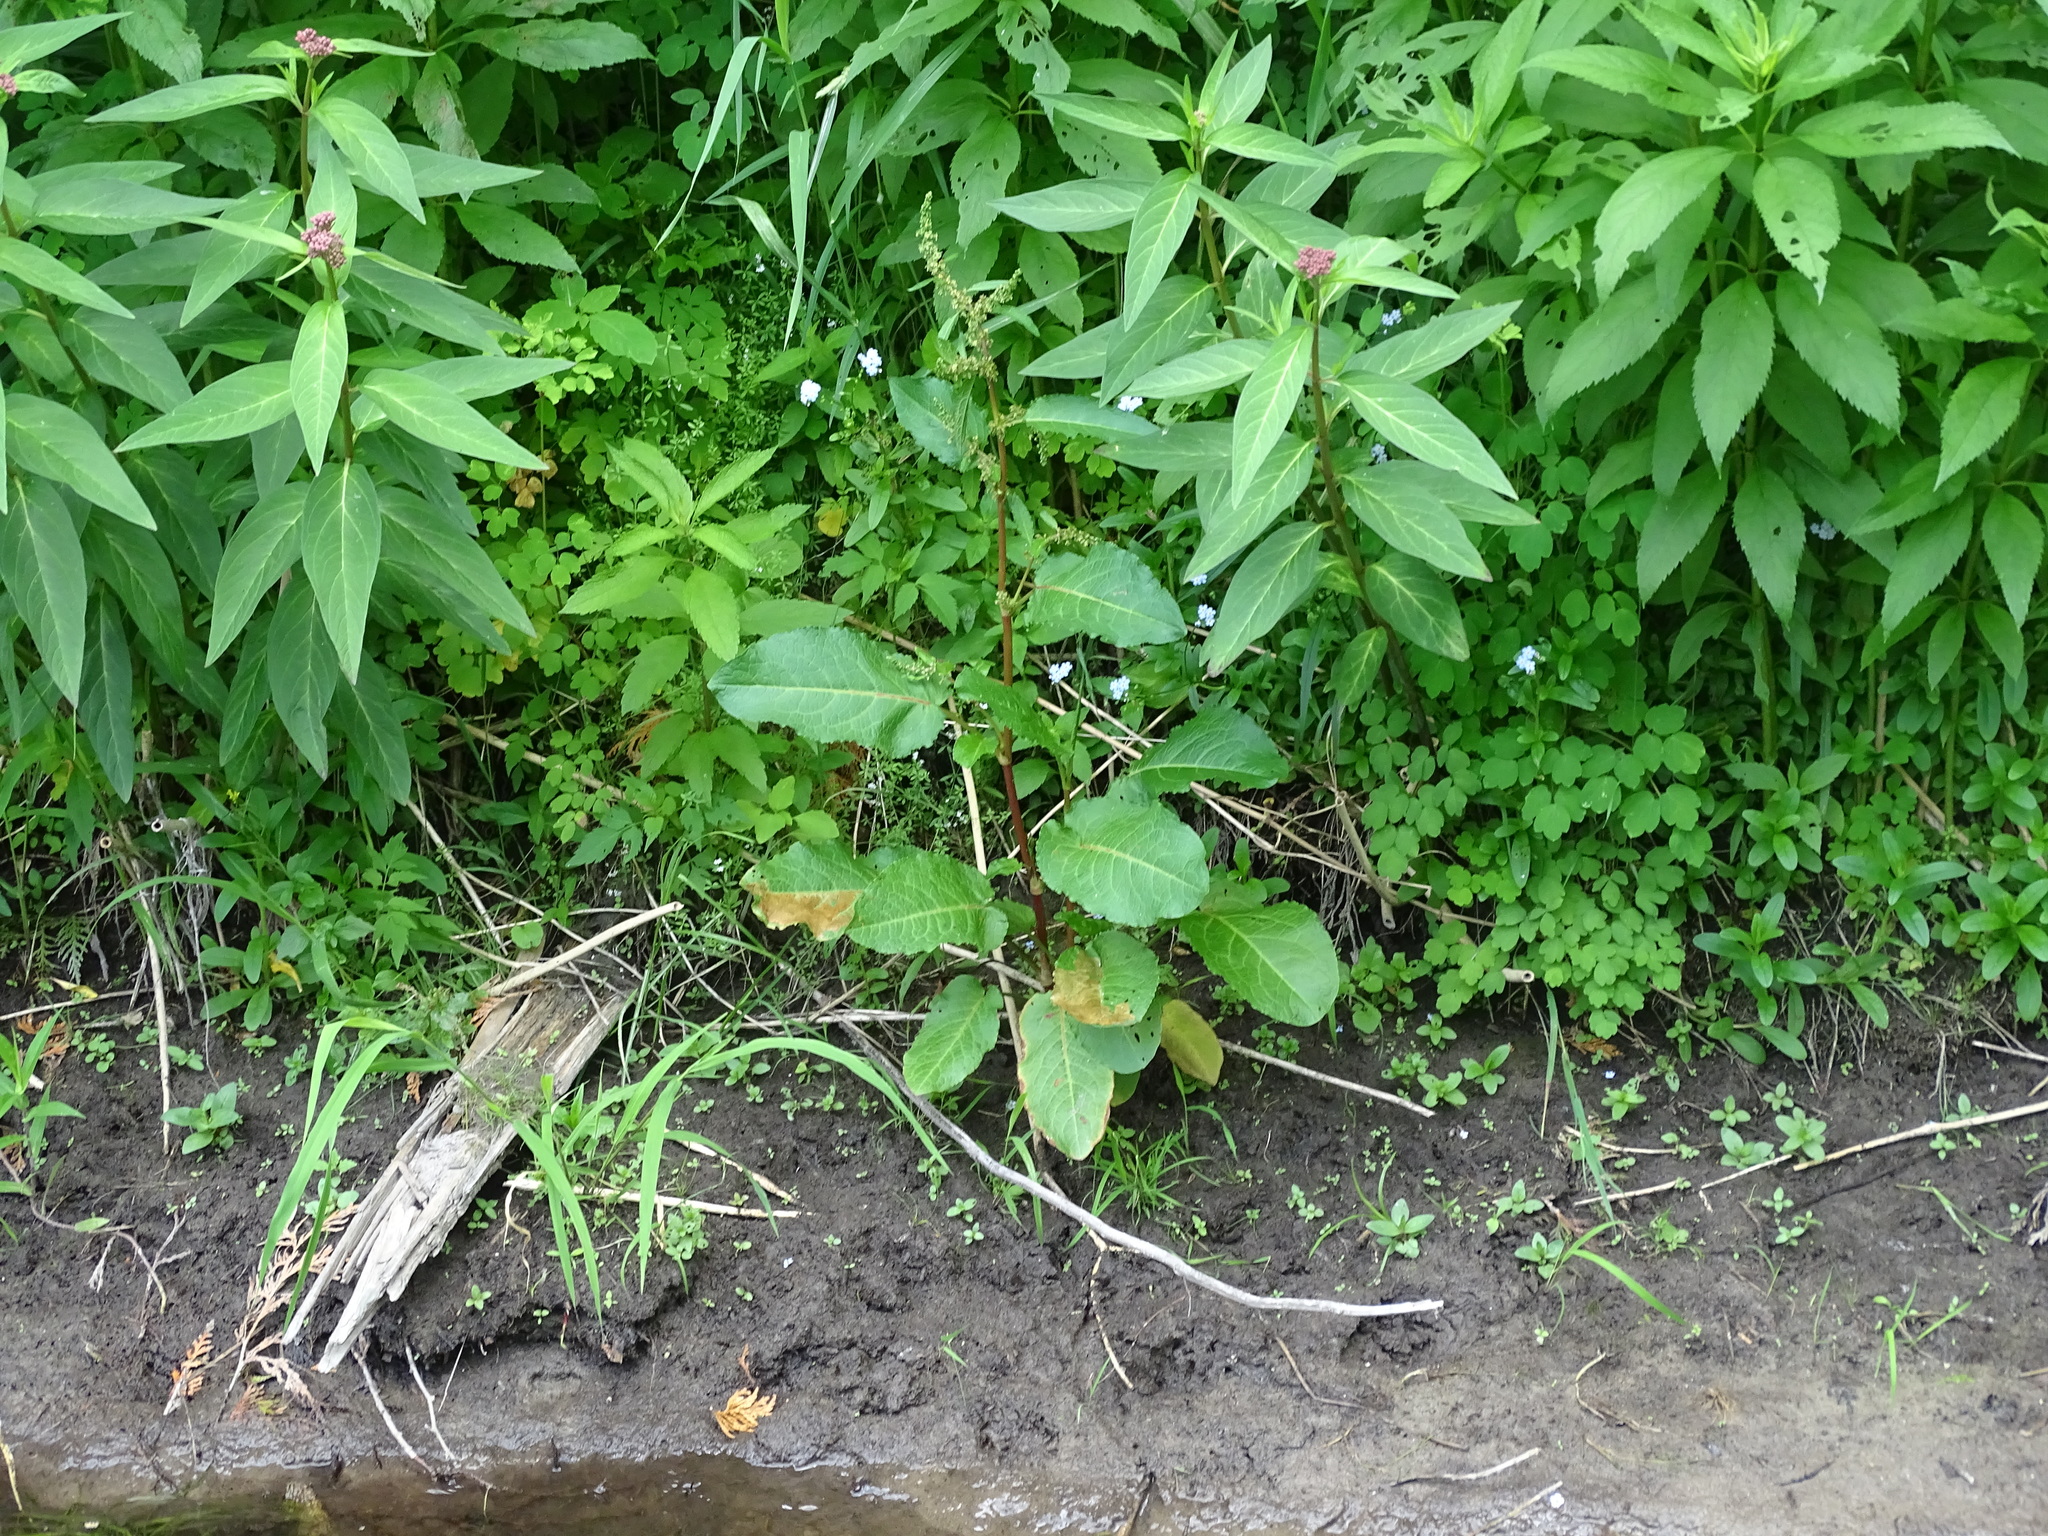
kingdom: Plantae
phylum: Tracheophyta
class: Magnoliopsida
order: Caryophyllales
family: Polygonaceae
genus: Rumex
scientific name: Rumex obtusifolius
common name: Bitter dock
